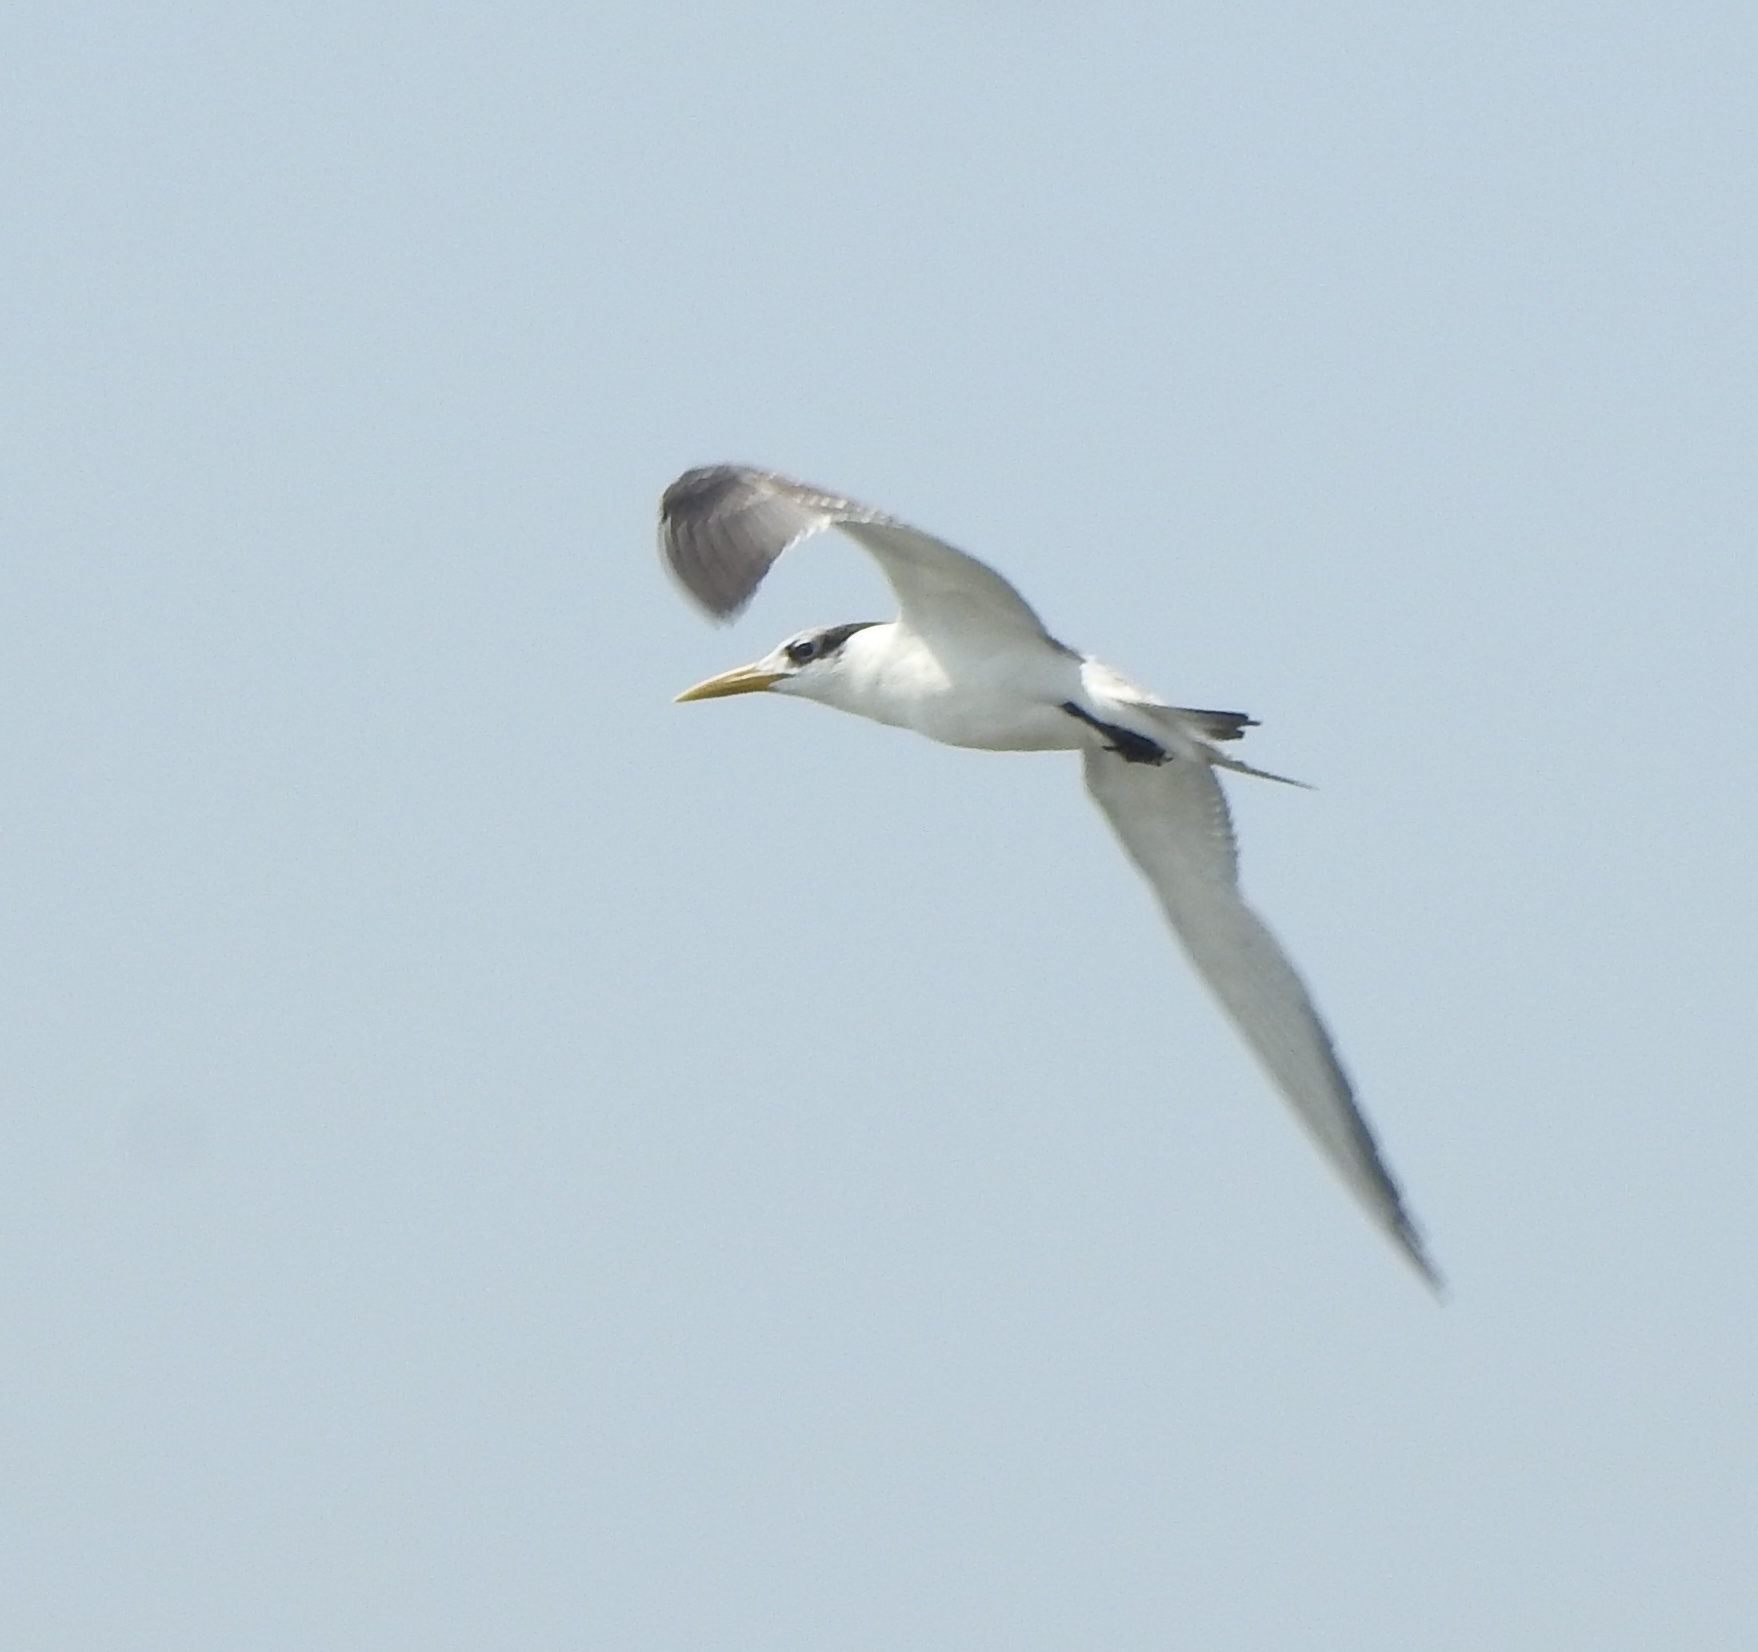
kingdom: Animalia
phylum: Chordata
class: Aves
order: Charadriiformes
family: Laridae
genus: Thalasseus
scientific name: Thalasseus bergii
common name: Greater crested tern
